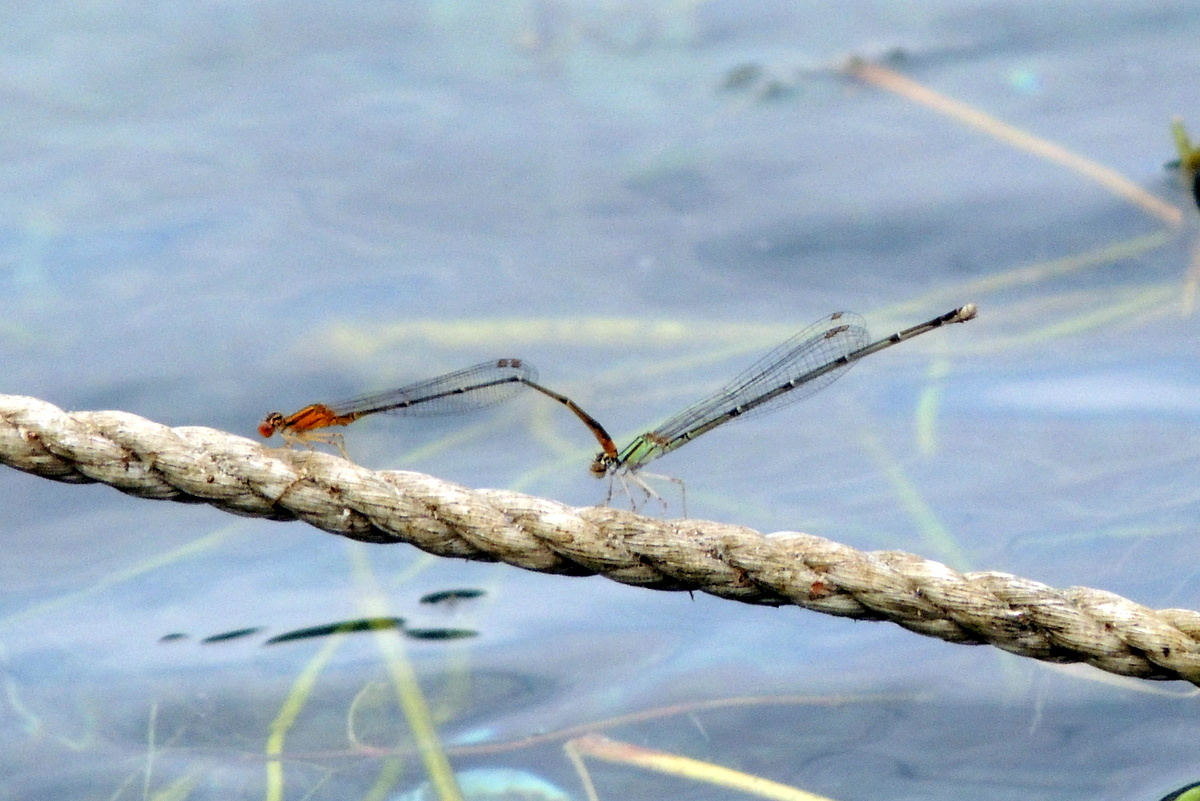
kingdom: Animalia
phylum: Arthropoda
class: Insecta
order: Odonata
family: Coenagrionidae
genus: Enallagma
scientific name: Enallagma signatum
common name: Orange bluet
